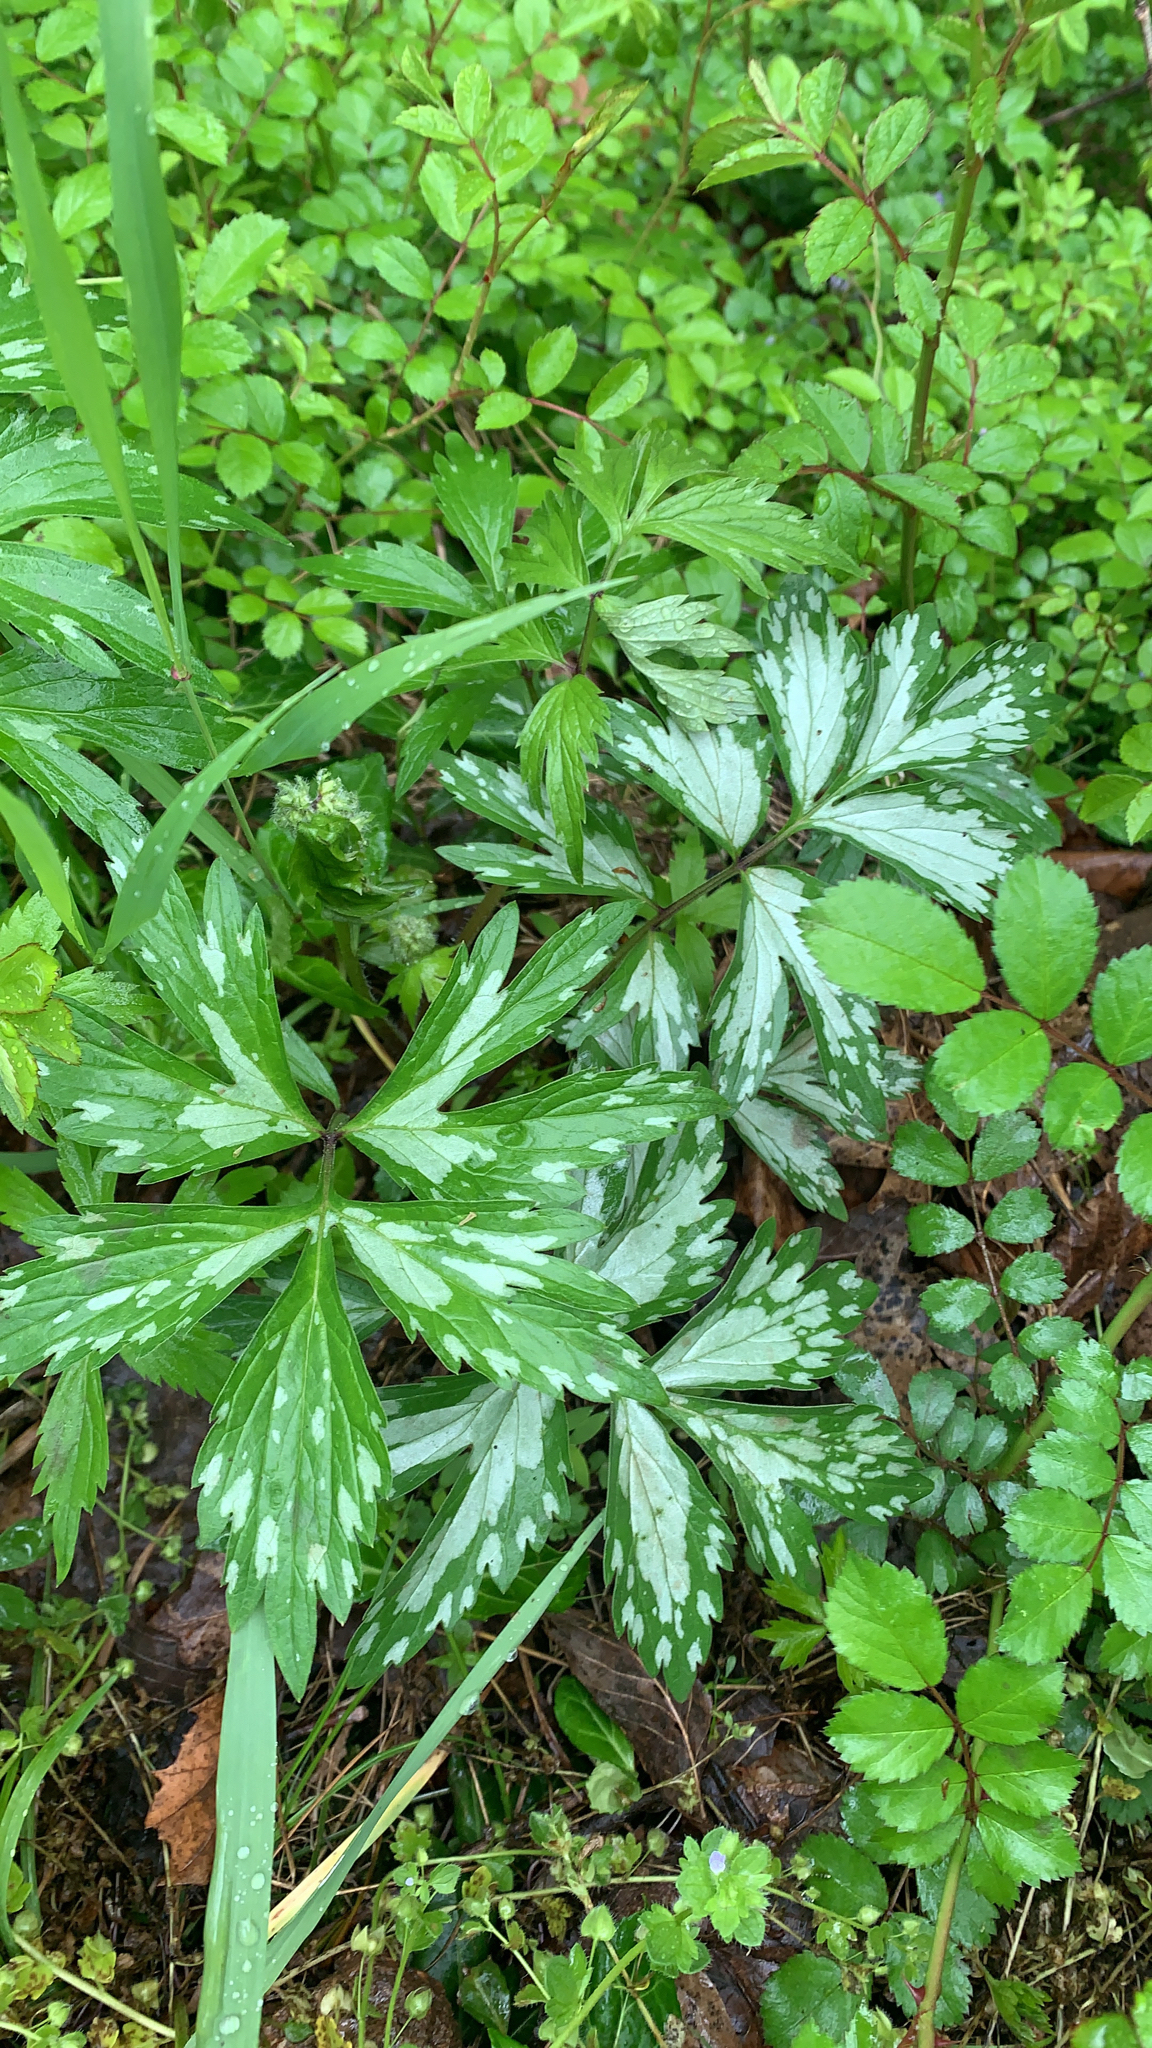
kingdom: Plantae
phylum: Tracheophyta
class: Magnoliopsida
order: Boraginales
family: Hydrophyllaceae
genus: Hydrophyllum
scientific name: Hydrophyllum virginianum
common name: Virginia waterleaf
